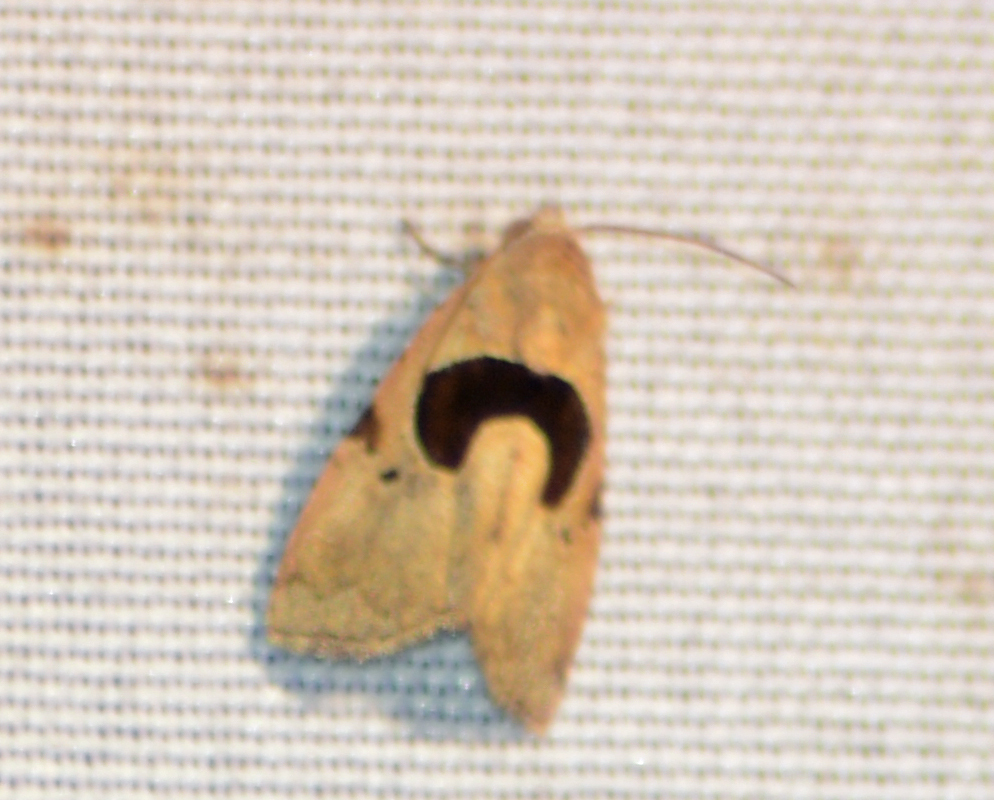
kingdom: Animalia
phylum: Arthropoda
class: Insecta
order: Lepidoptera
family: Noctuidae
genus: Tripudia
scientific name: Tripudia
